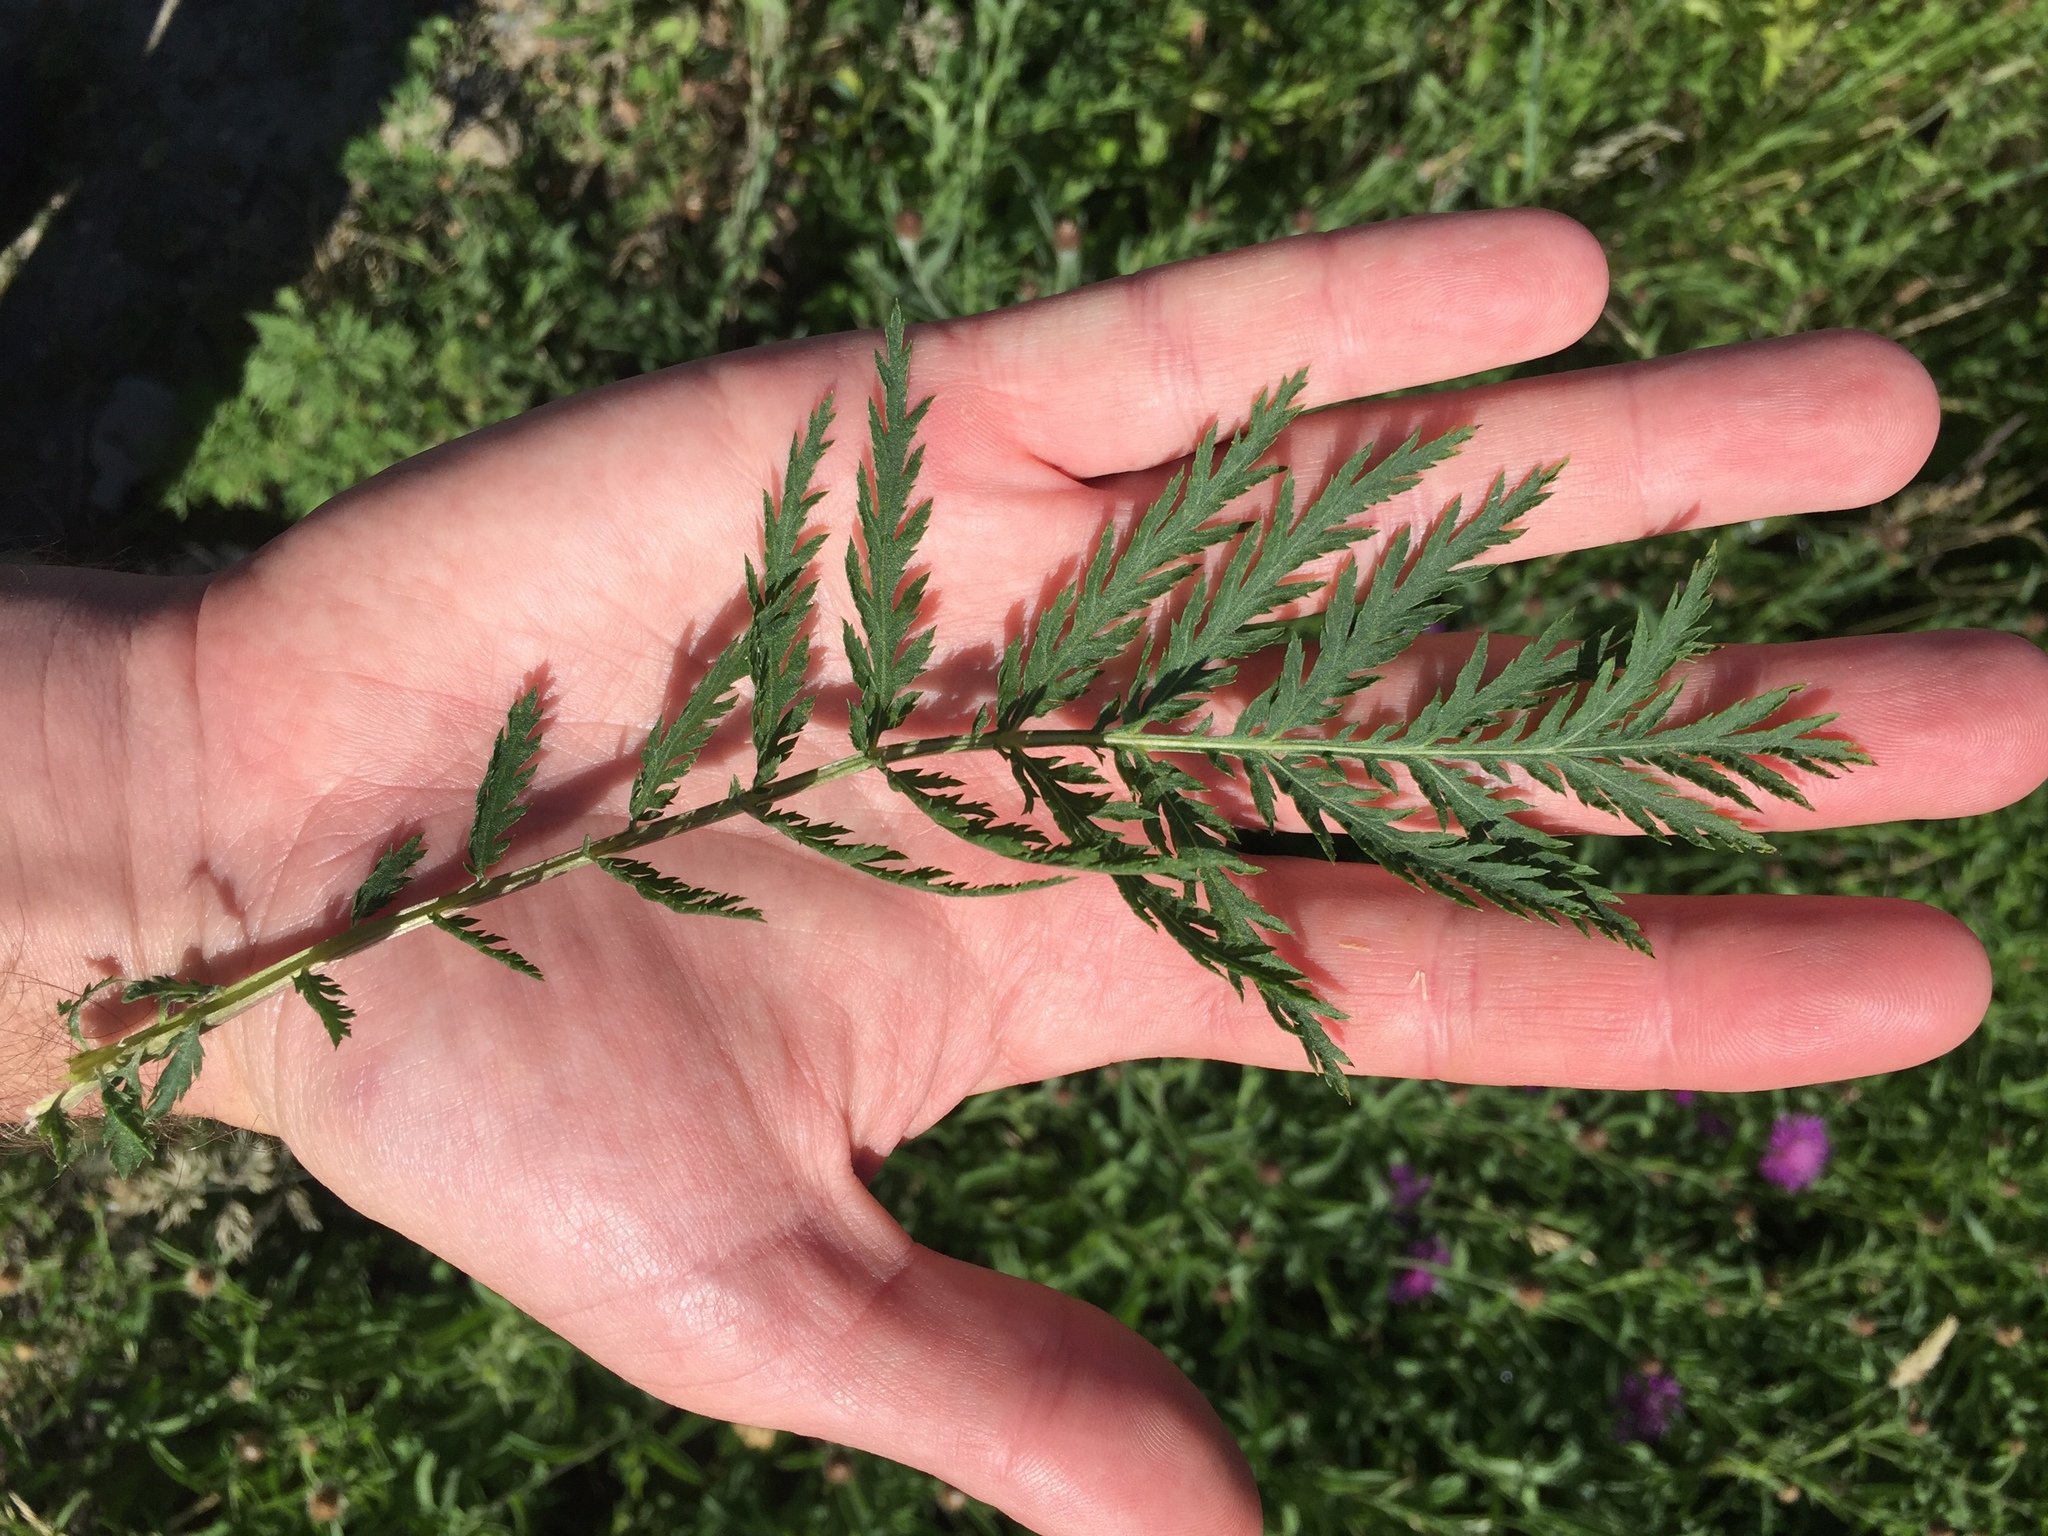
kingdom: Plantae
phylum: Tracheophyta
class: Magnoliopsida
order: Asterales
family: Asteraceae
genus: Tanacetum
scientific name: Tanacetum vulgare
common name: Common tansy
